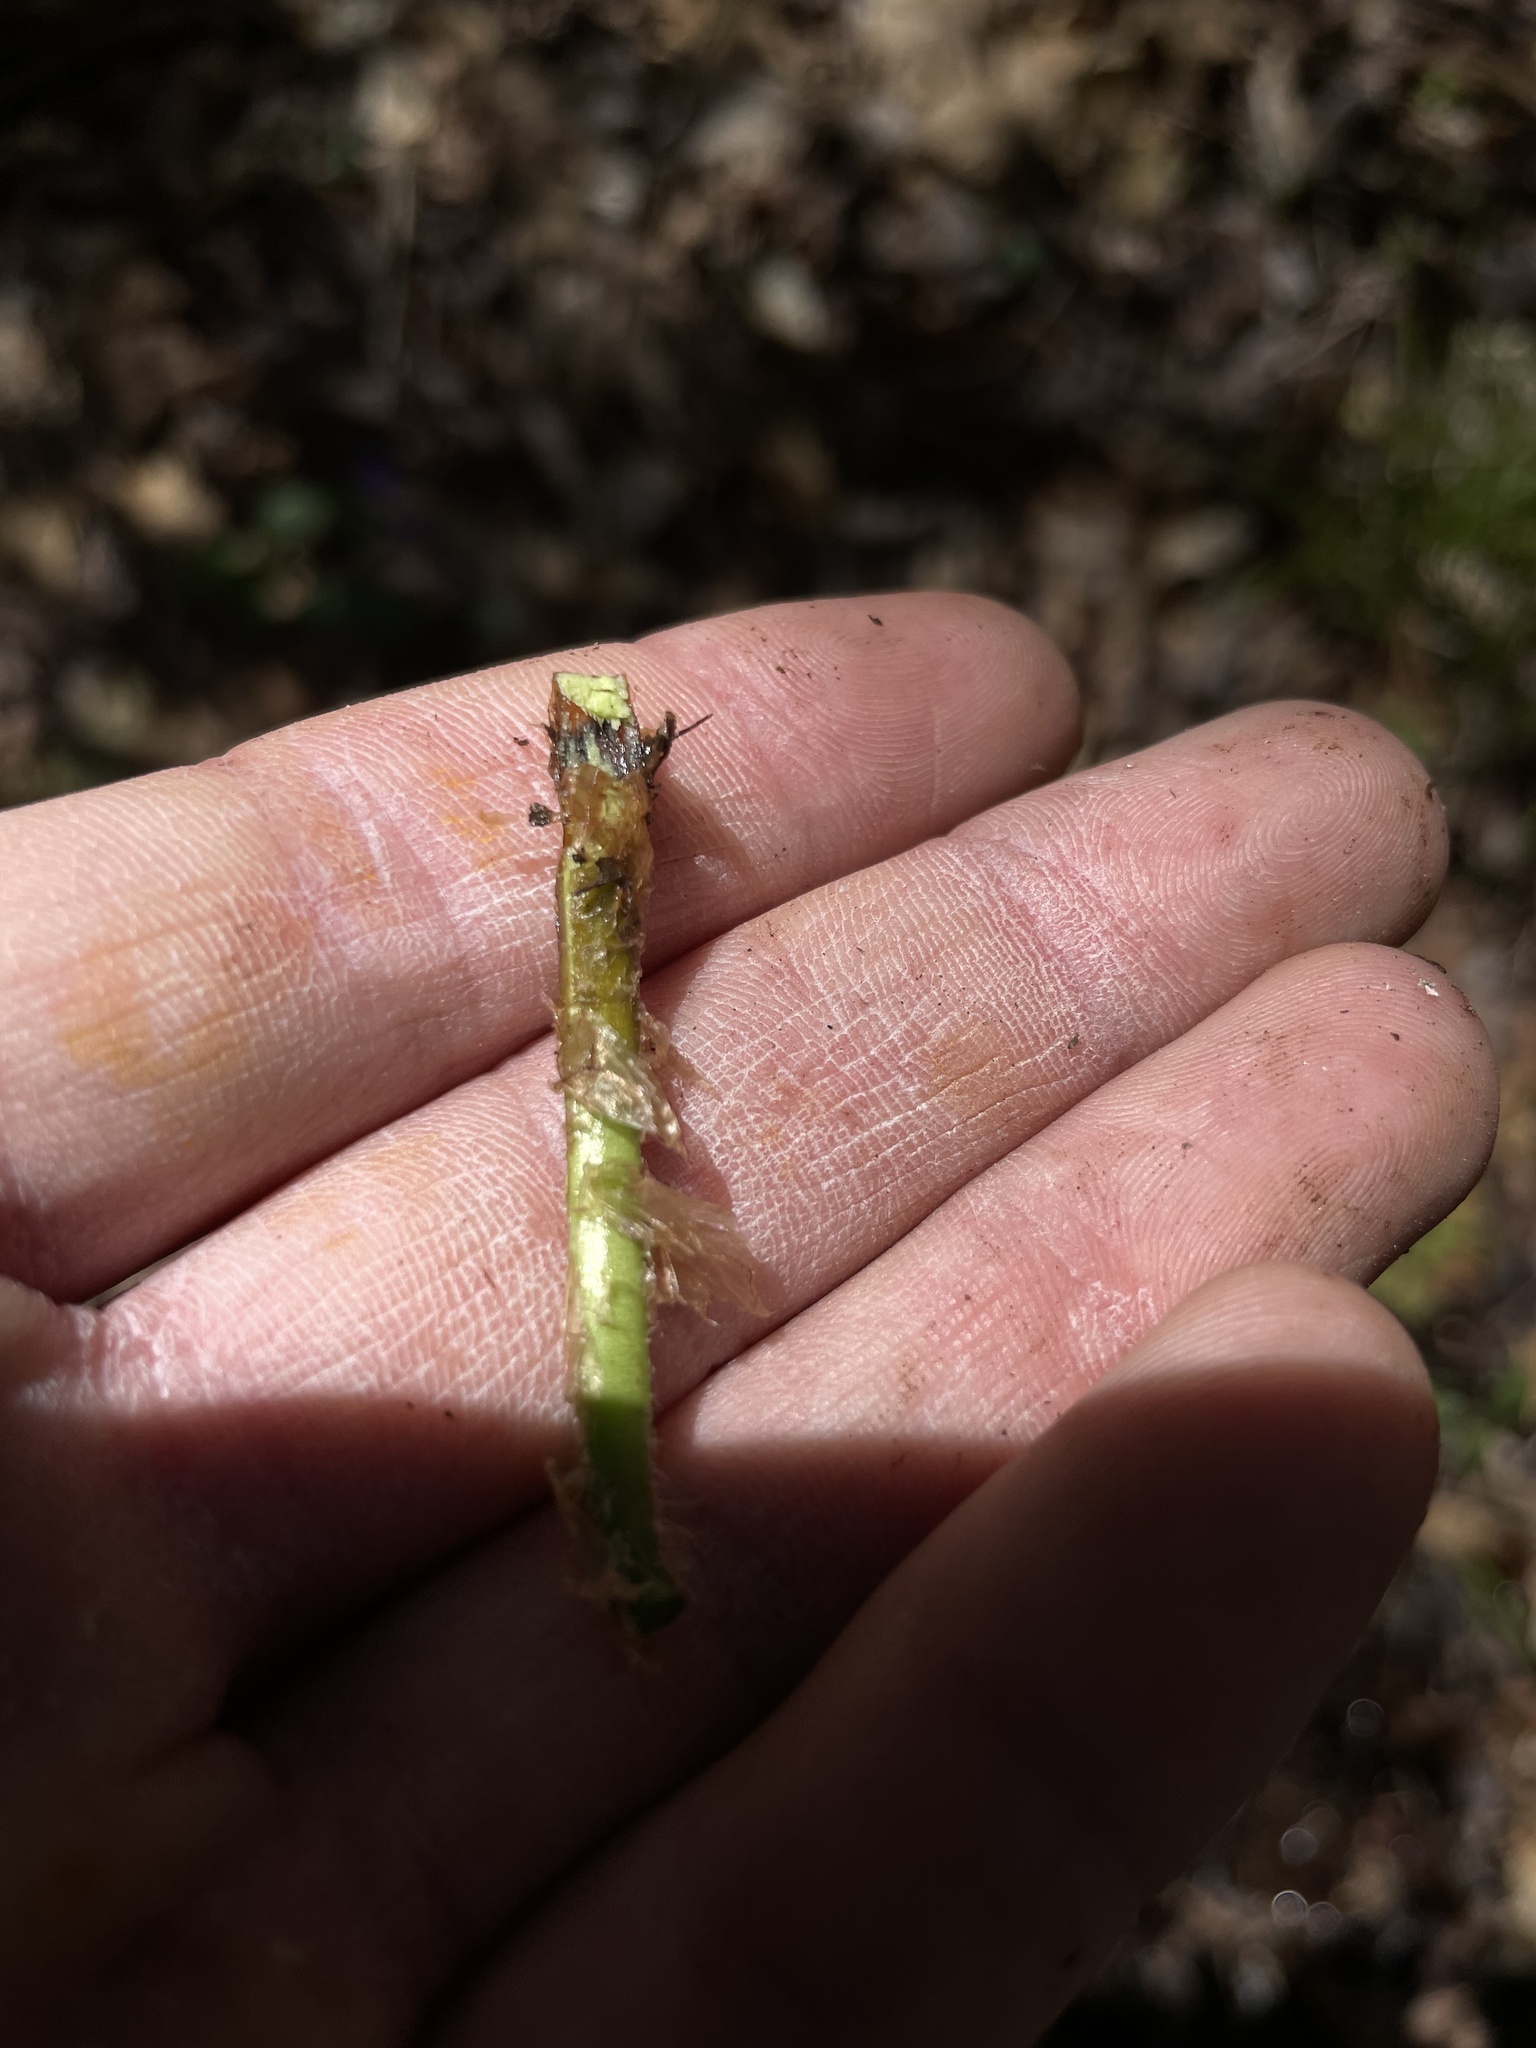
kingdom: Plantae
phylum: Tracheophyta
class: Polypodiopsida
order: Polypodiales
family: Dryopteridaceae
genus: Dryopteris
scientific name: Dryopteris marginalis
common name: Marginal wood fern
